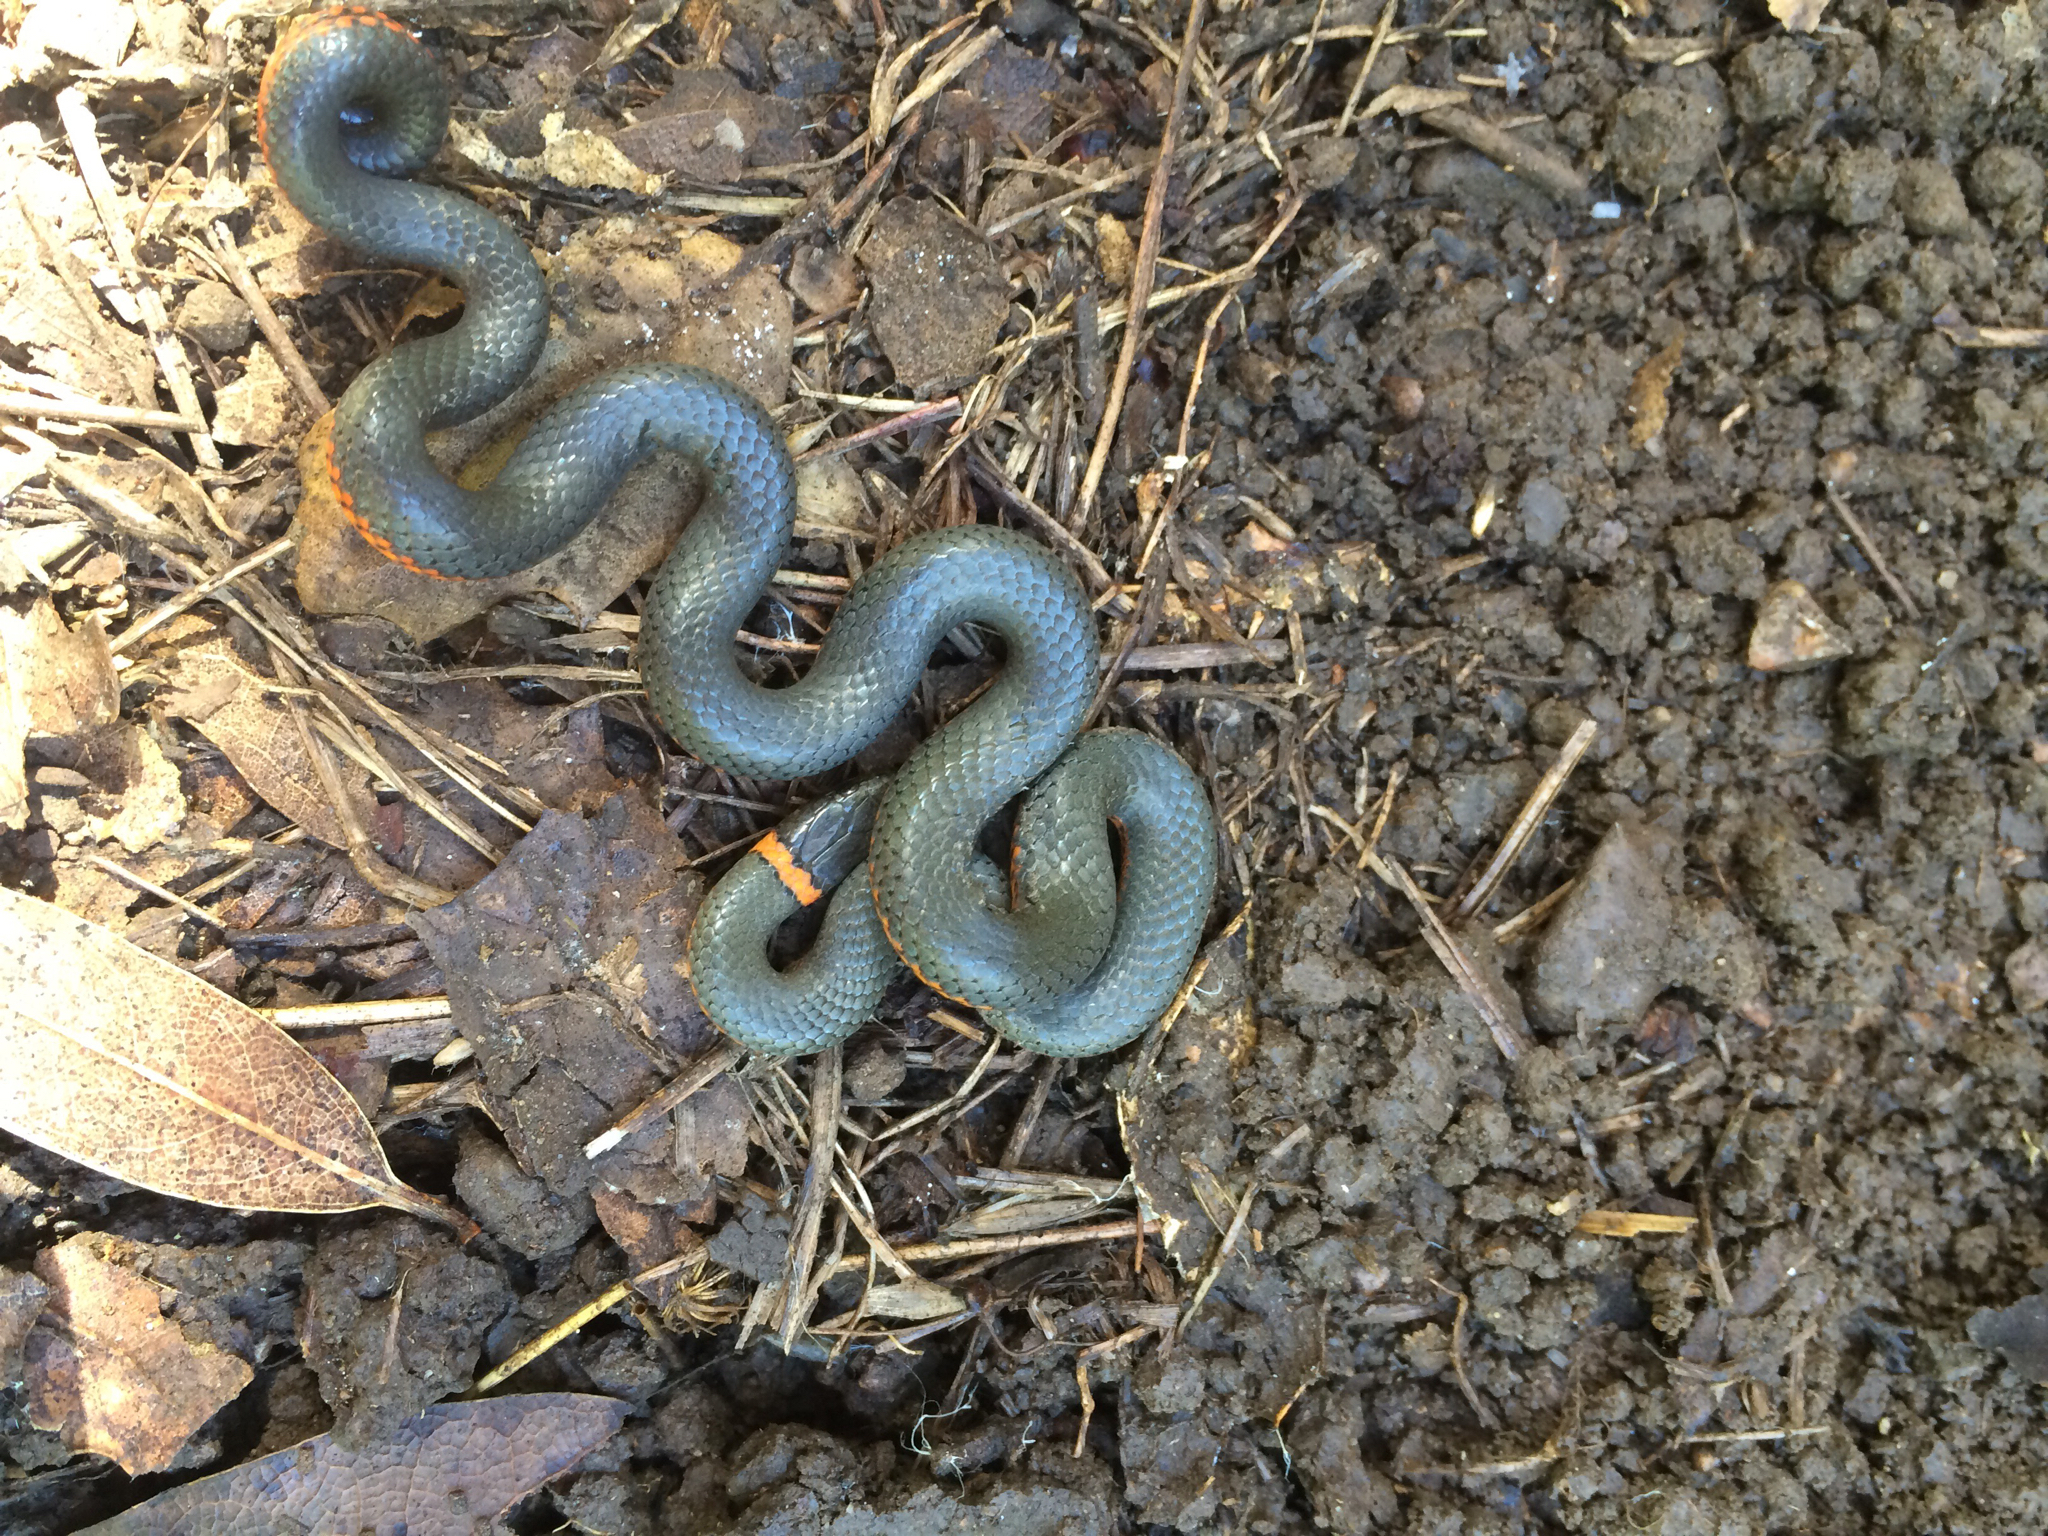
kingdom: Animalia
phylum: Chordata
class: Squamata
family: Colubridae
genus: Diadophis
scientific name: Diadophis punctatus
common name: Ringneck snake
